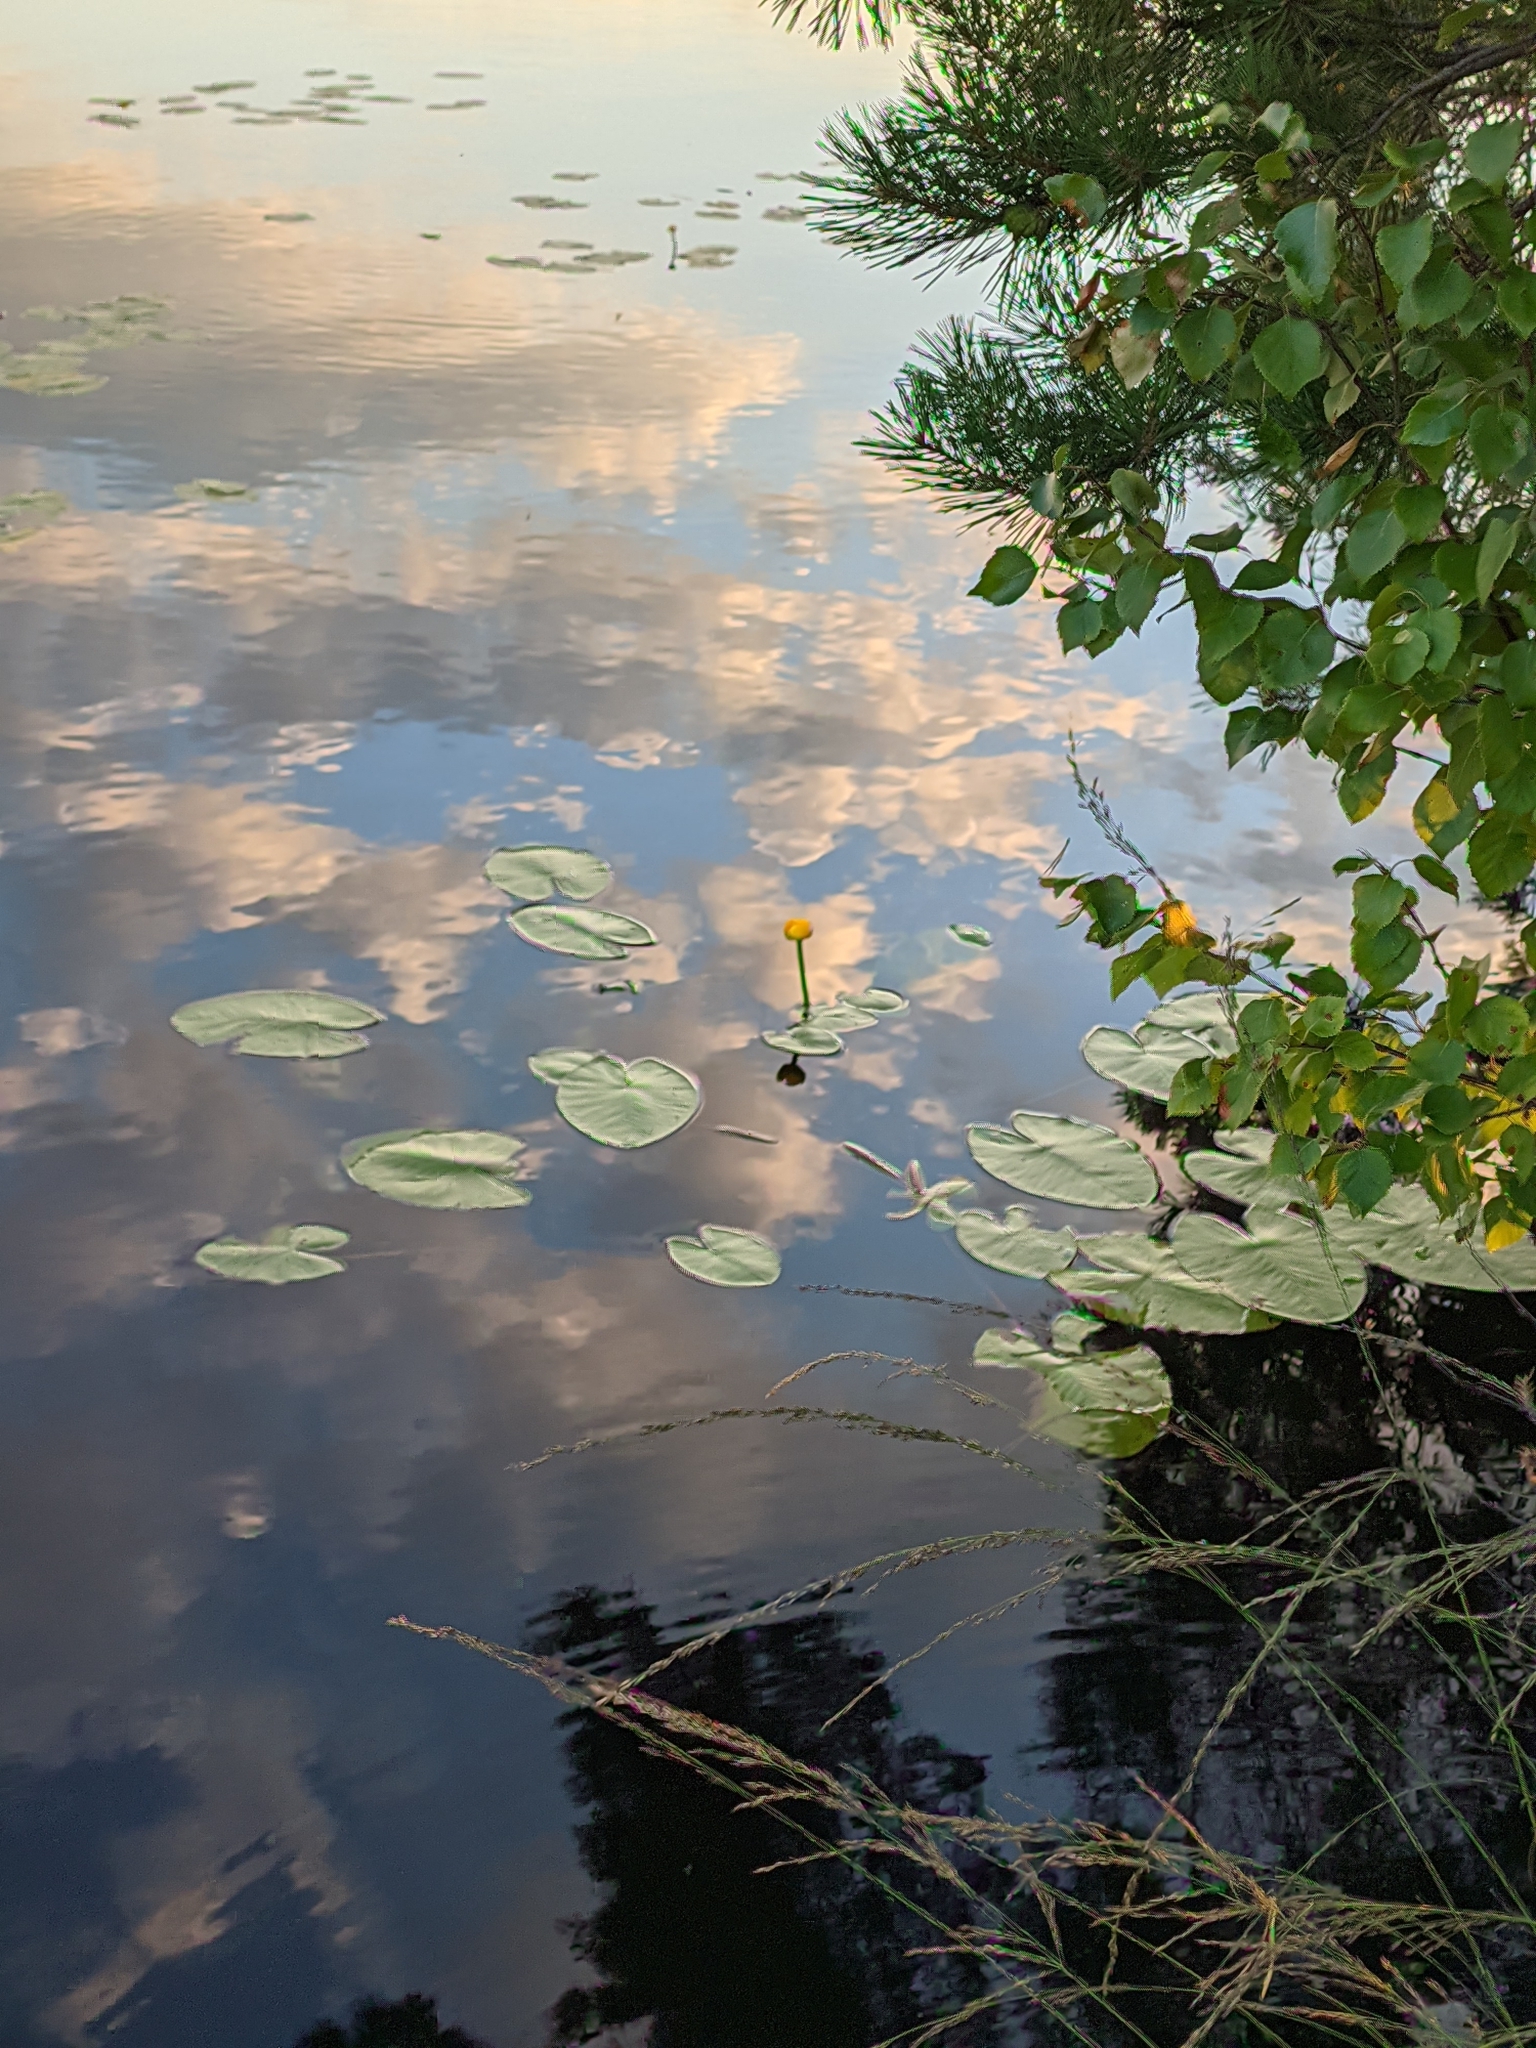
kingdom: Plantae
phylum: Tracheophyta
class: Magnoliopsida
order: Nymphaeales
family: Nymphaeaceae
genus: Nuphar
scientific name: Nuphar lutea
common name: Yellow water-lily
